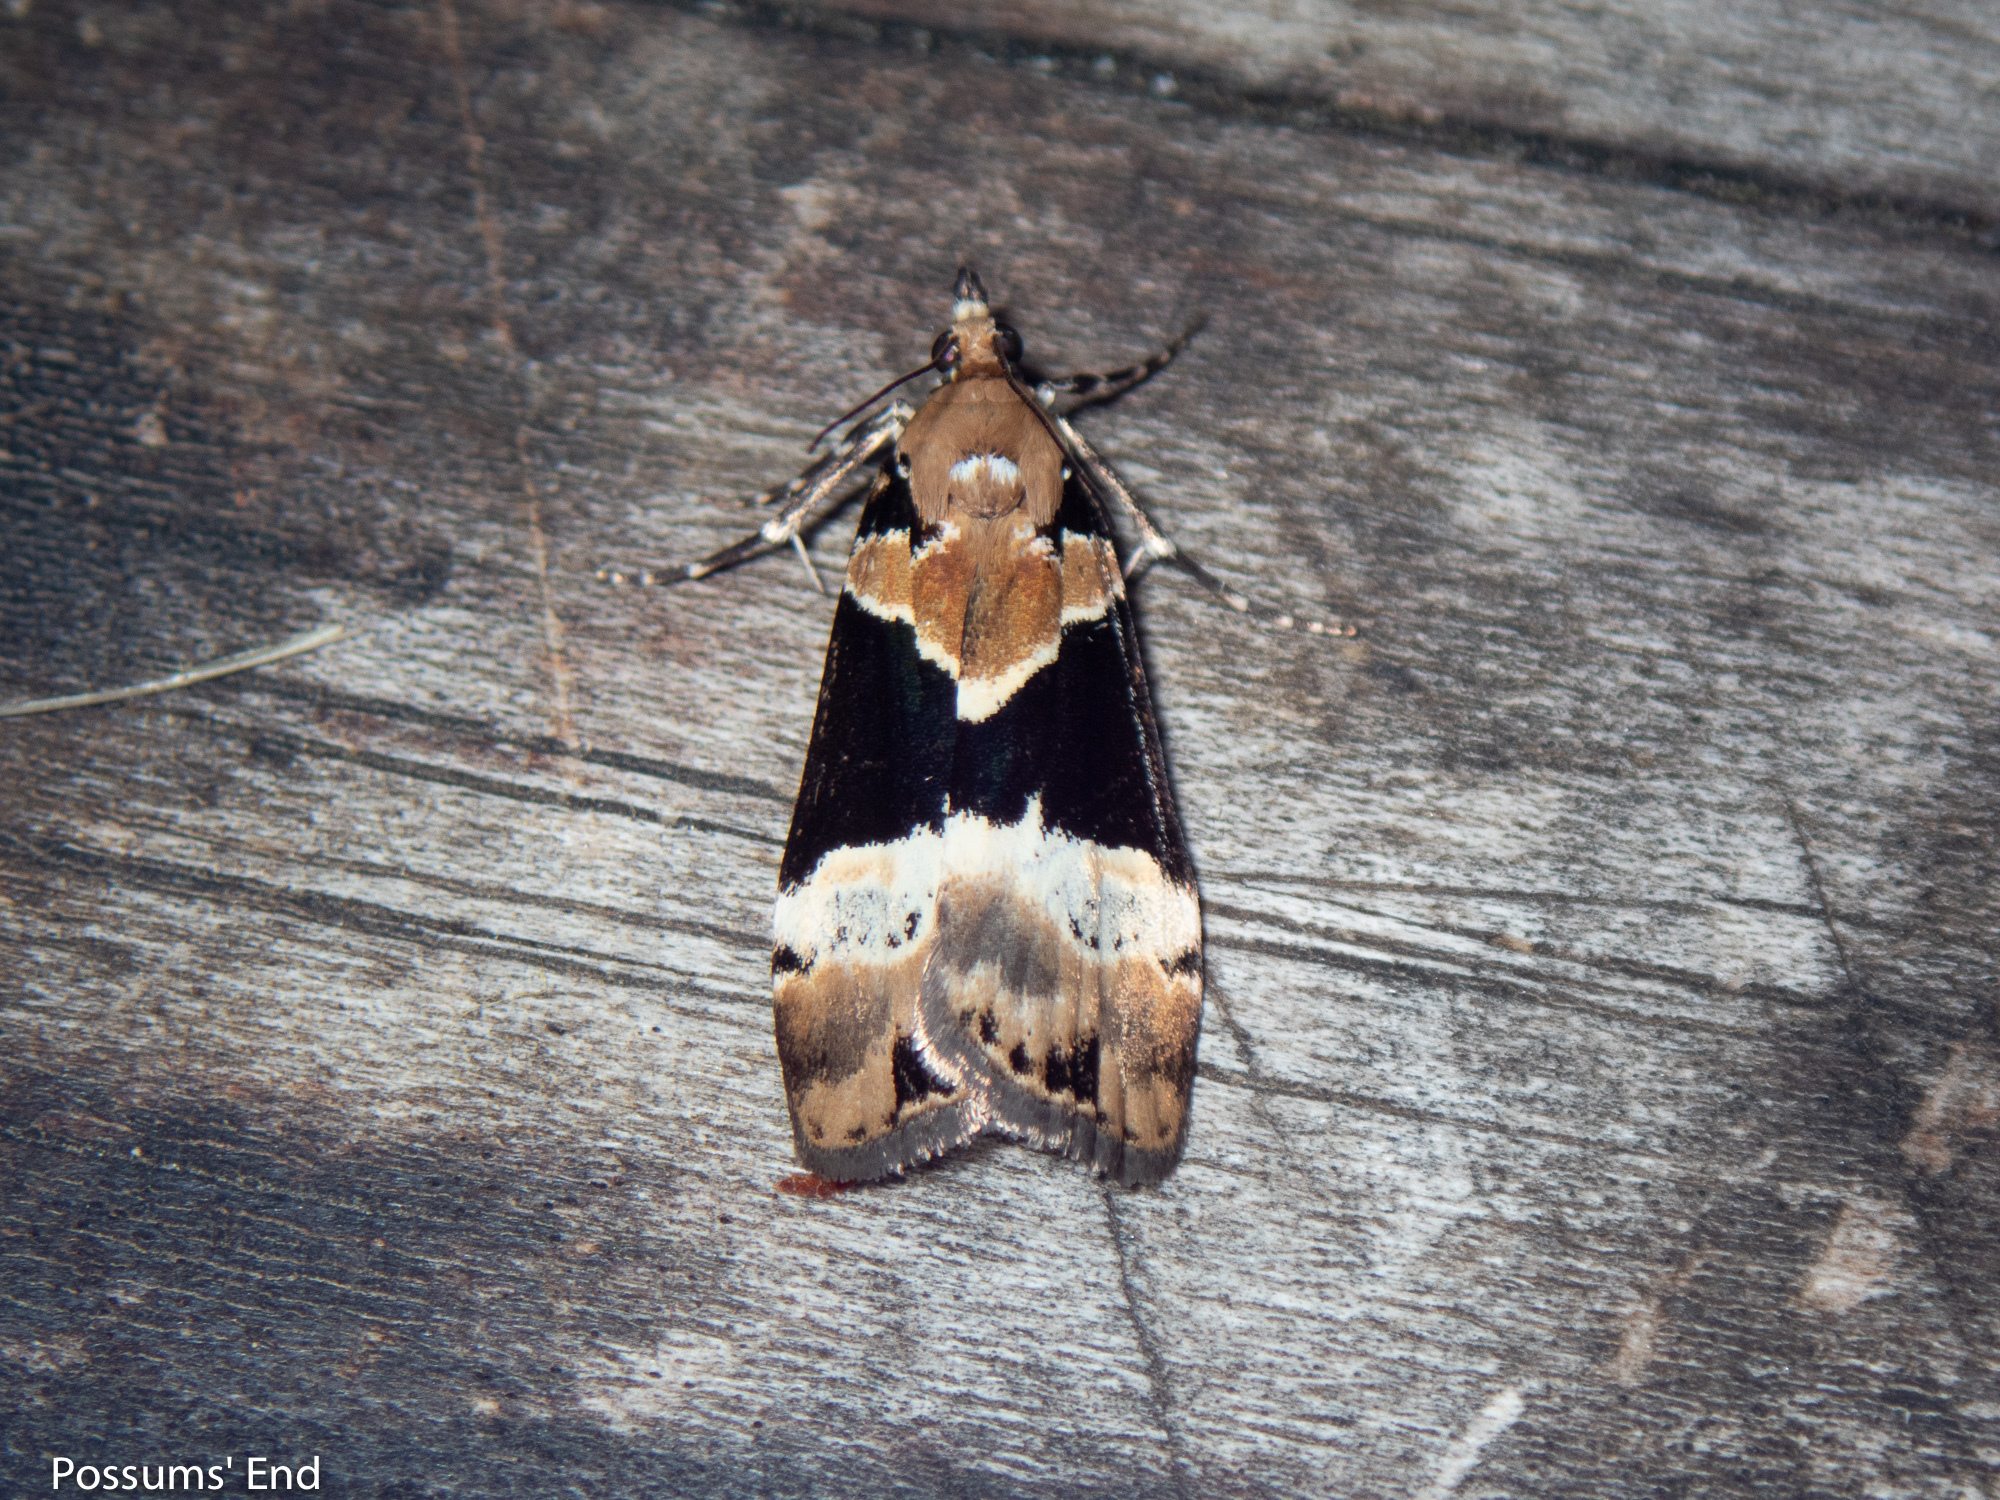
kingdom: Animalia
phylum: Arthropoda
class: Insecta
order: Lepidoptera
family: Crambidae
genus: Eudonia
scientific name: Eudonia aspidota
